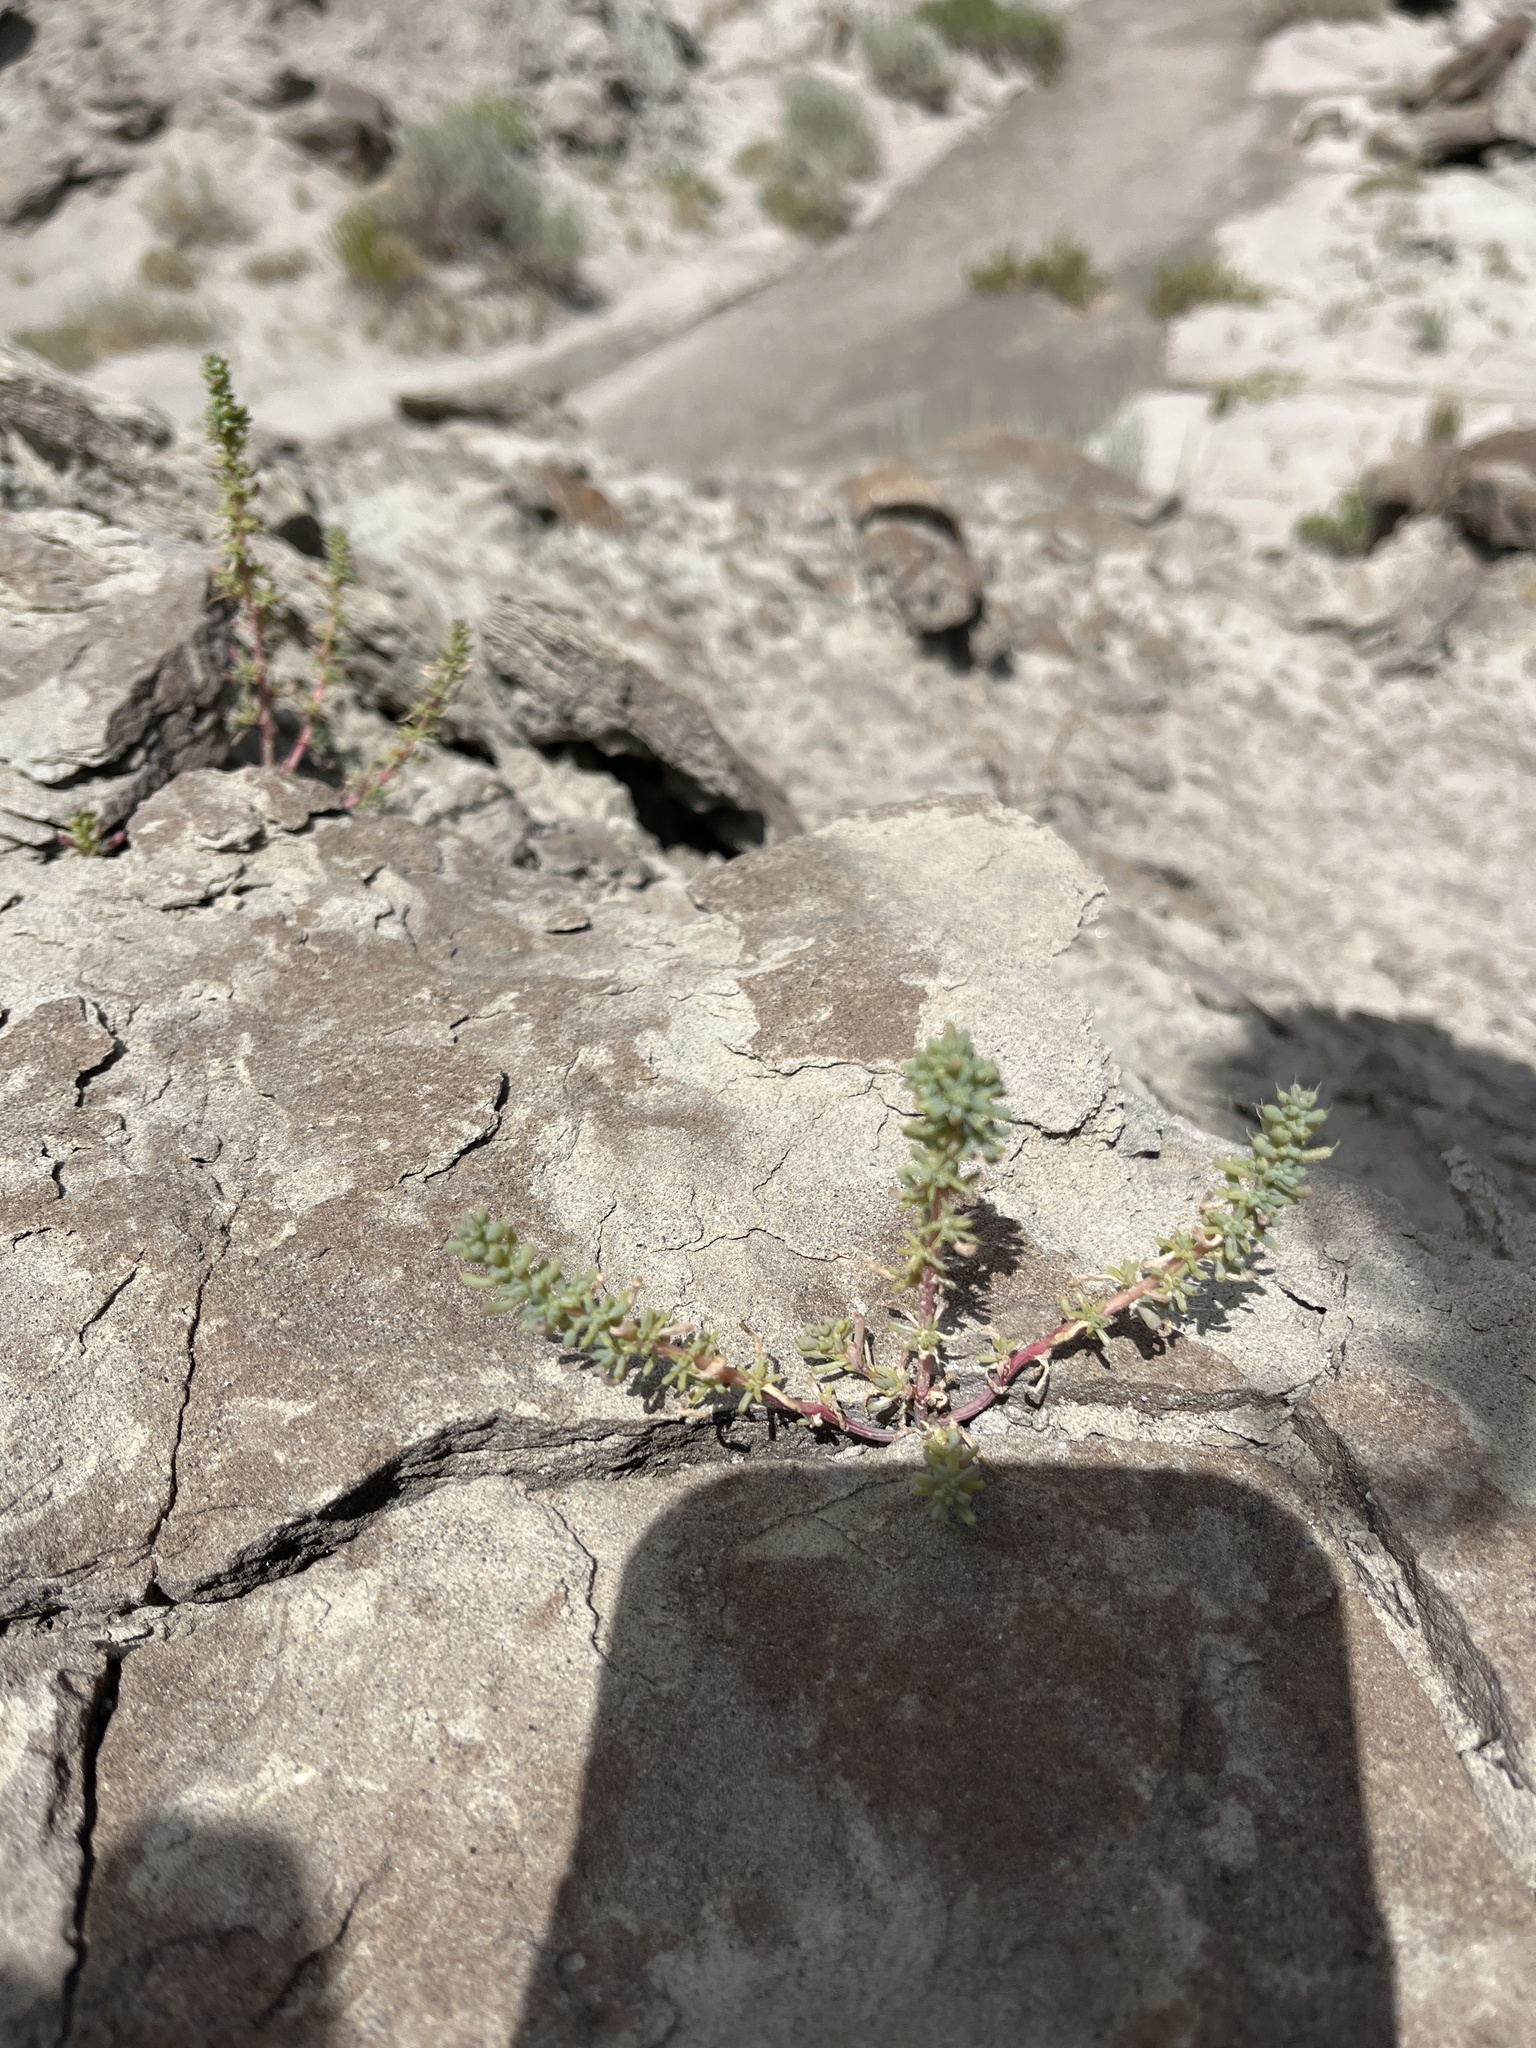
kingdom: Plantae
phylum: Tracheophyta
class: Magnoliopsida
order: Caryophyllales
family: Amaranthaceae
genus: Halogeton
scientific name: Halogeton glomeratus
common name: Saltlover
